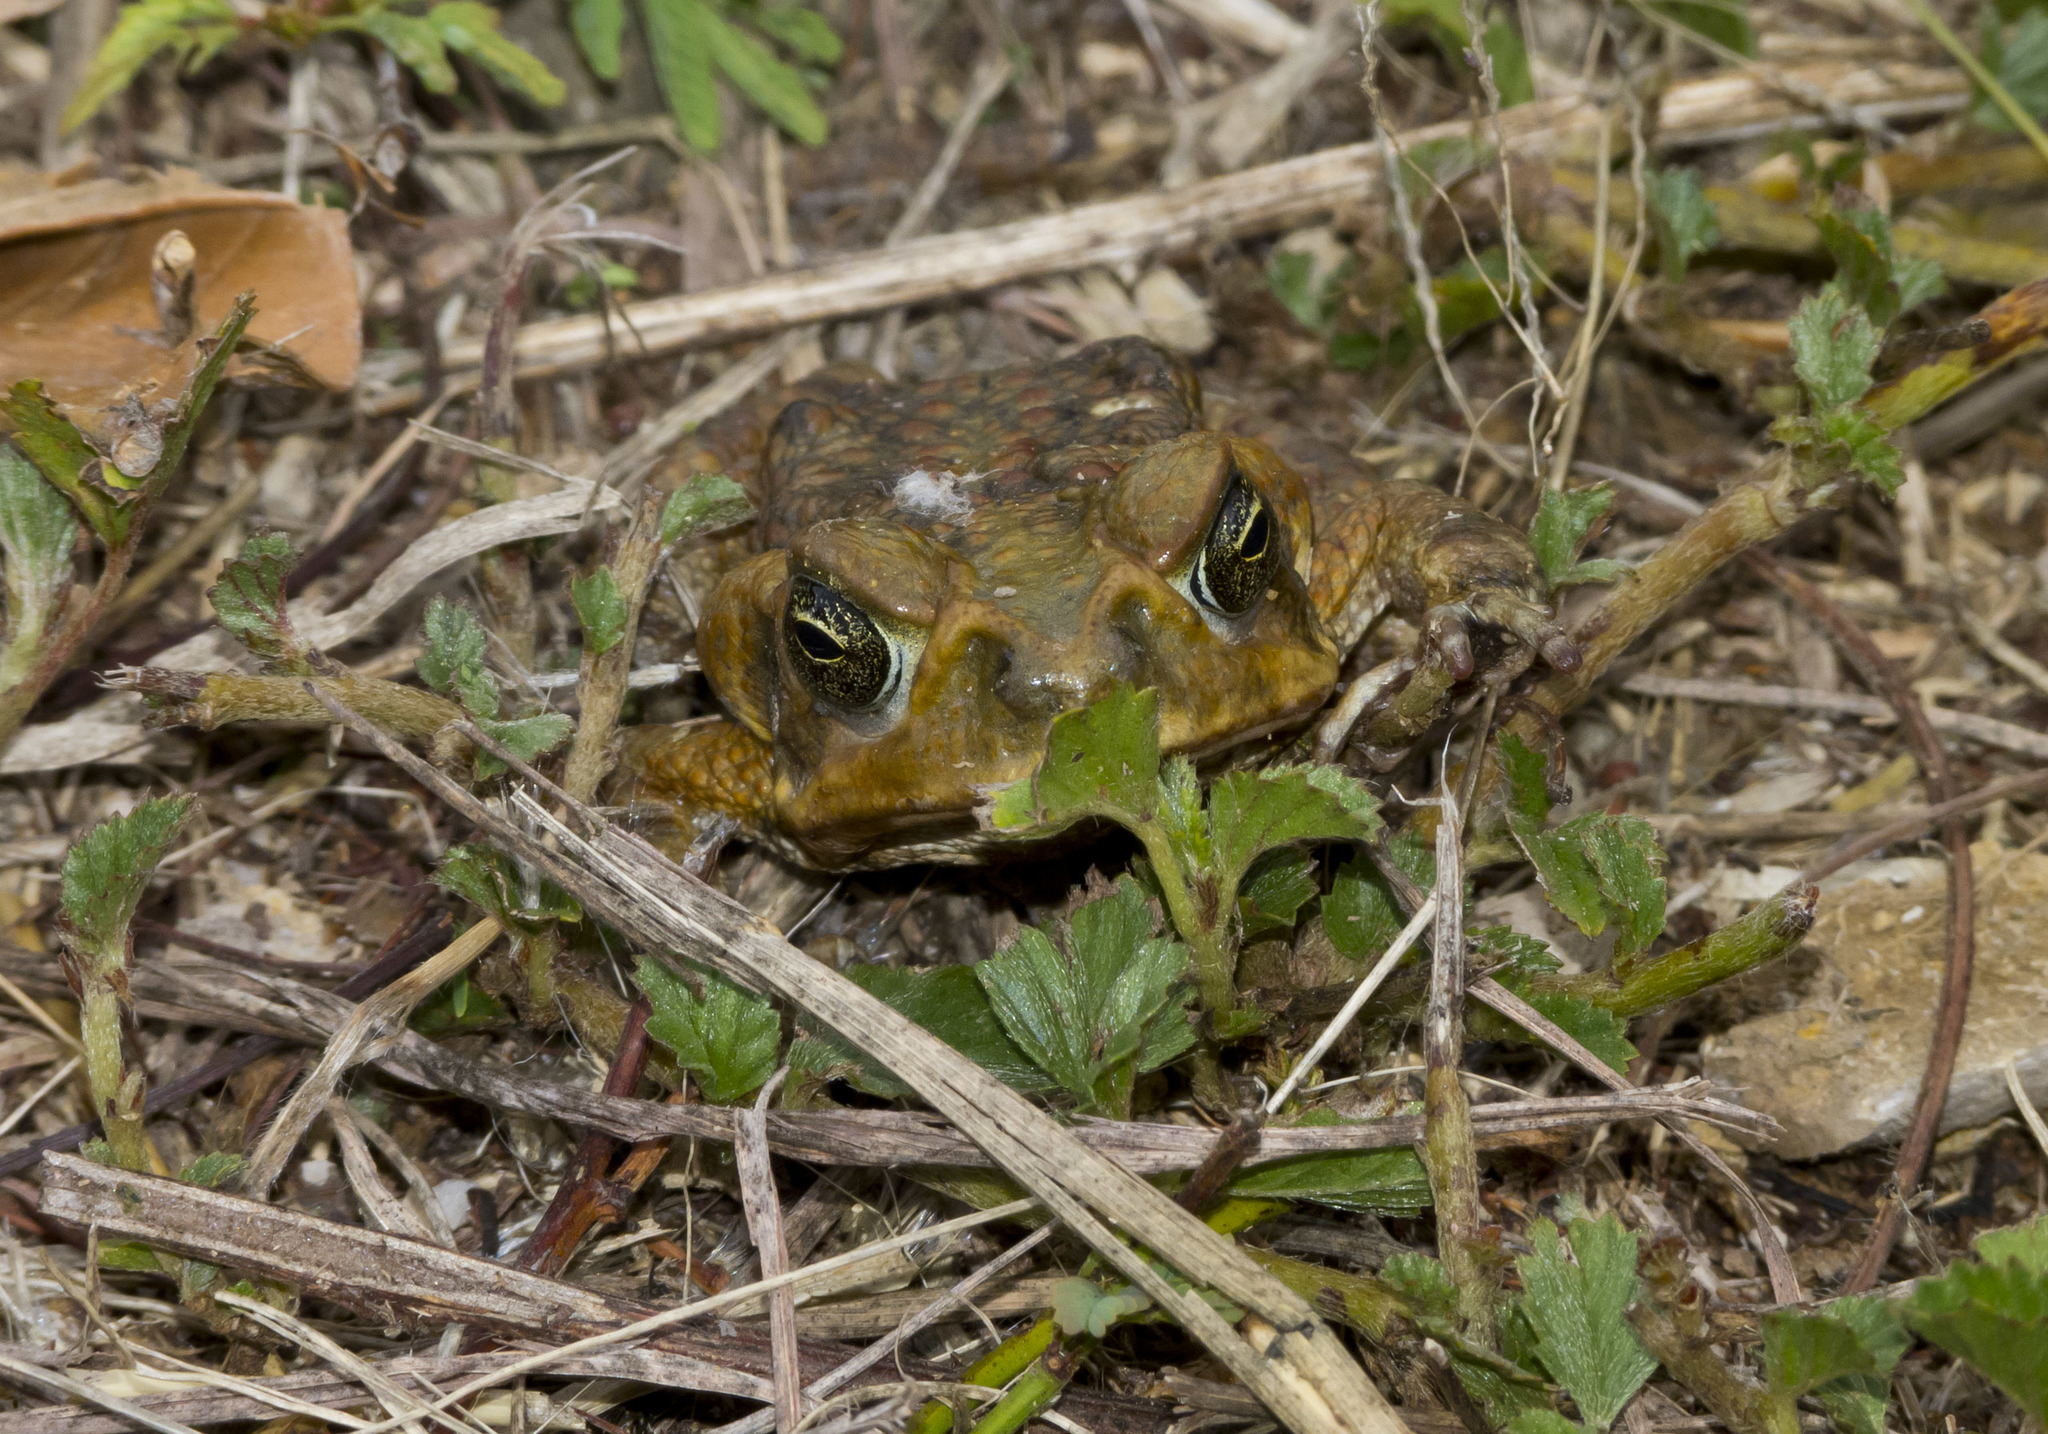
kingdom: Animalia
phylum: Chordata
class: Amphibia
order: Anura
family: Bufonidae
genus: Rhinella
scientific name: Rhinella horribilis
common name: Mesoamerican cane toad
